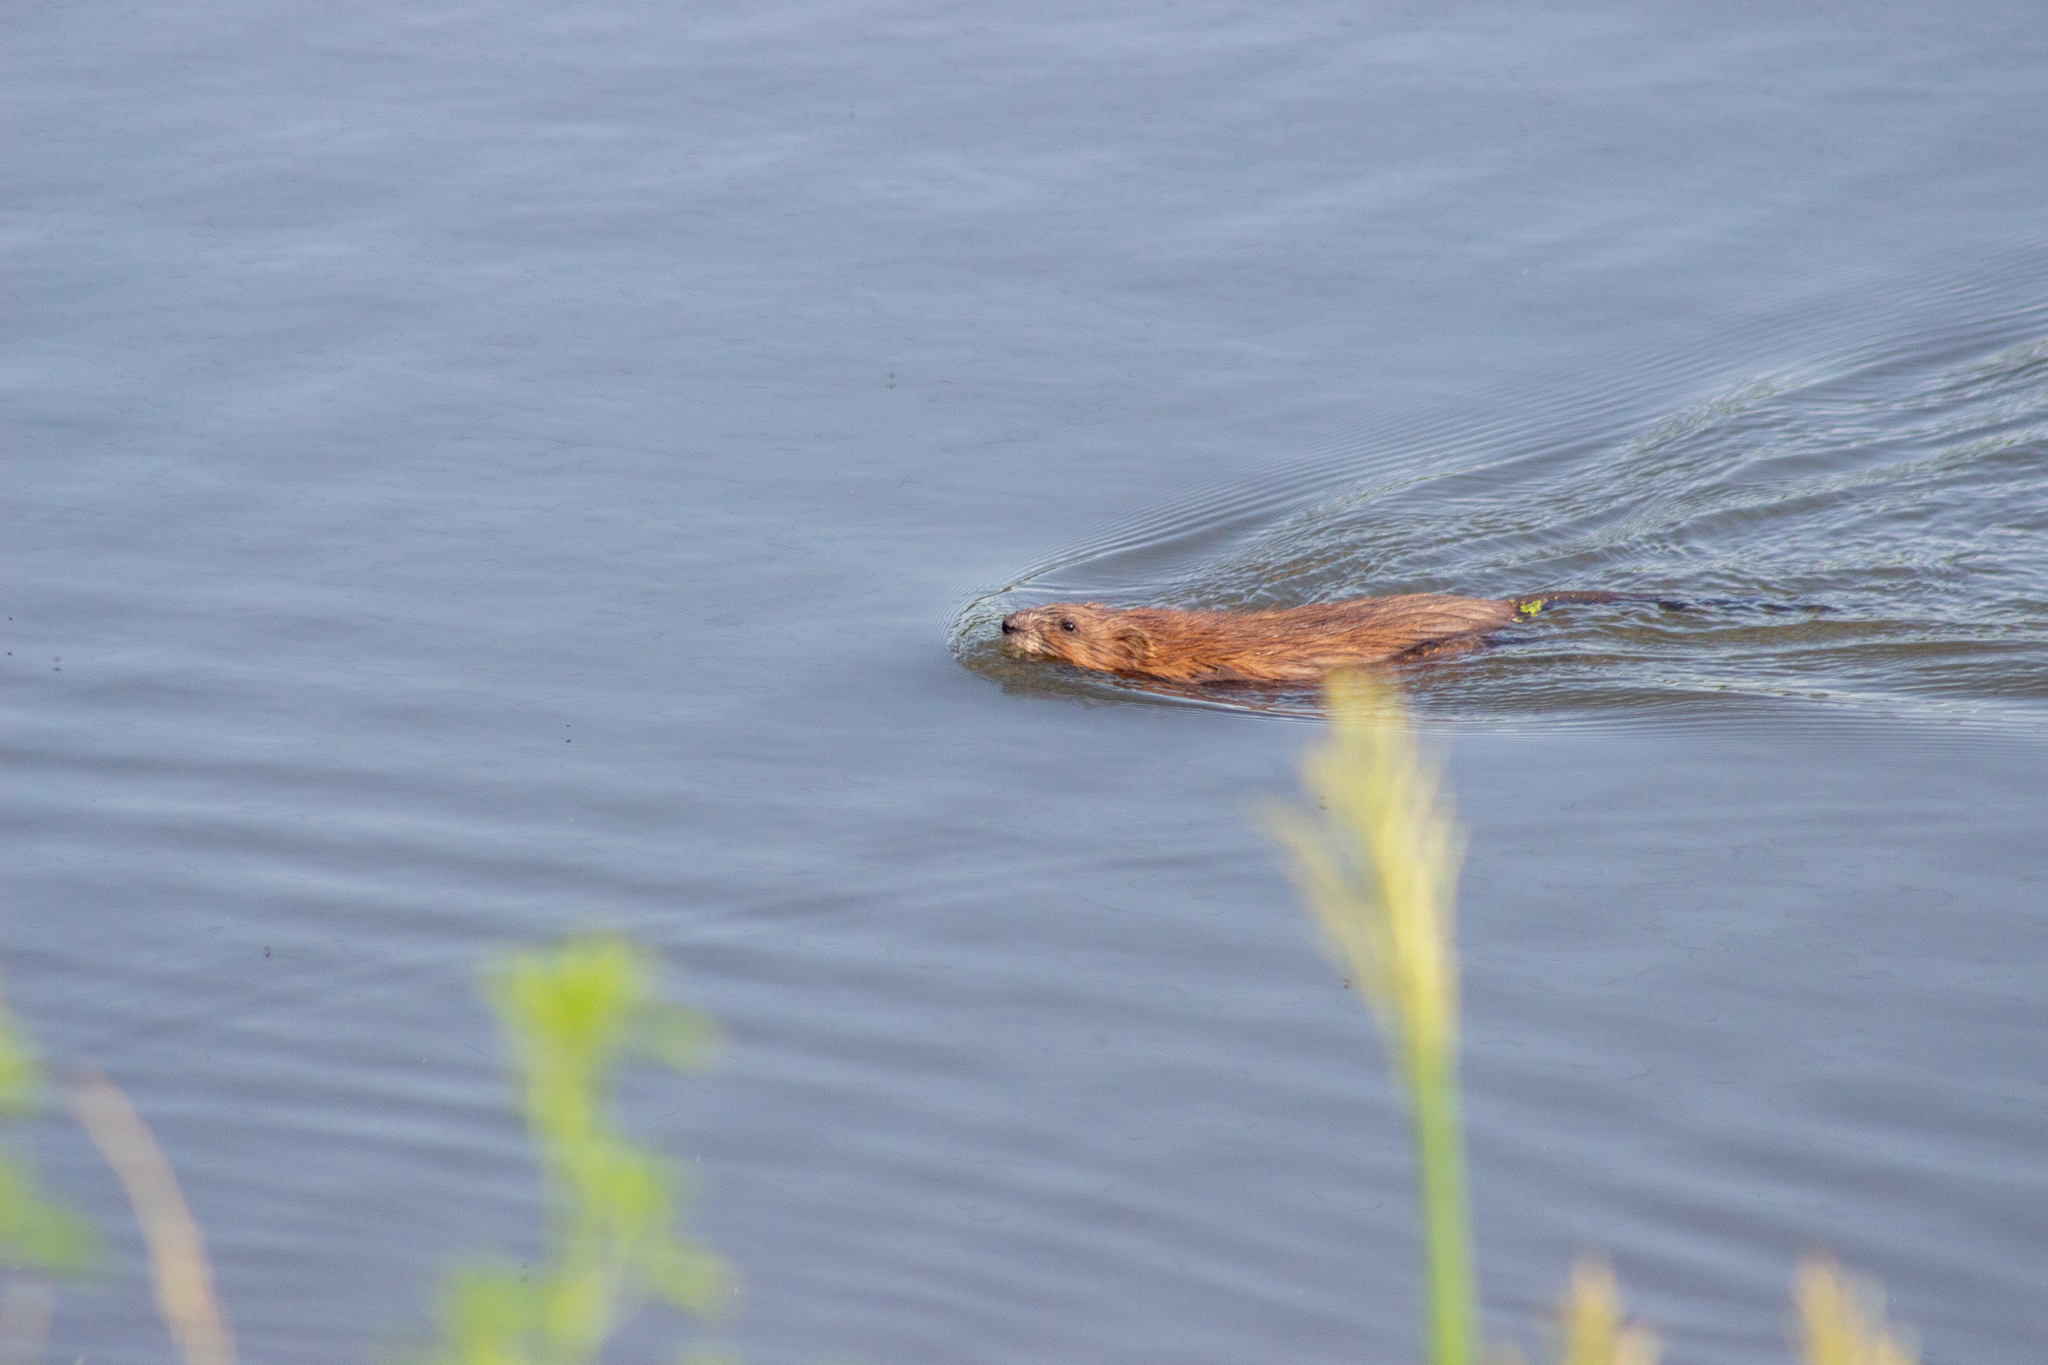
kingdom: Animalia
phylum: Chordata
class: Mammalia
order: Rodentia
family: Cricetidae
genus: Ondatra
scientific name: Ondatra zibethicus
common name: Muskrat
